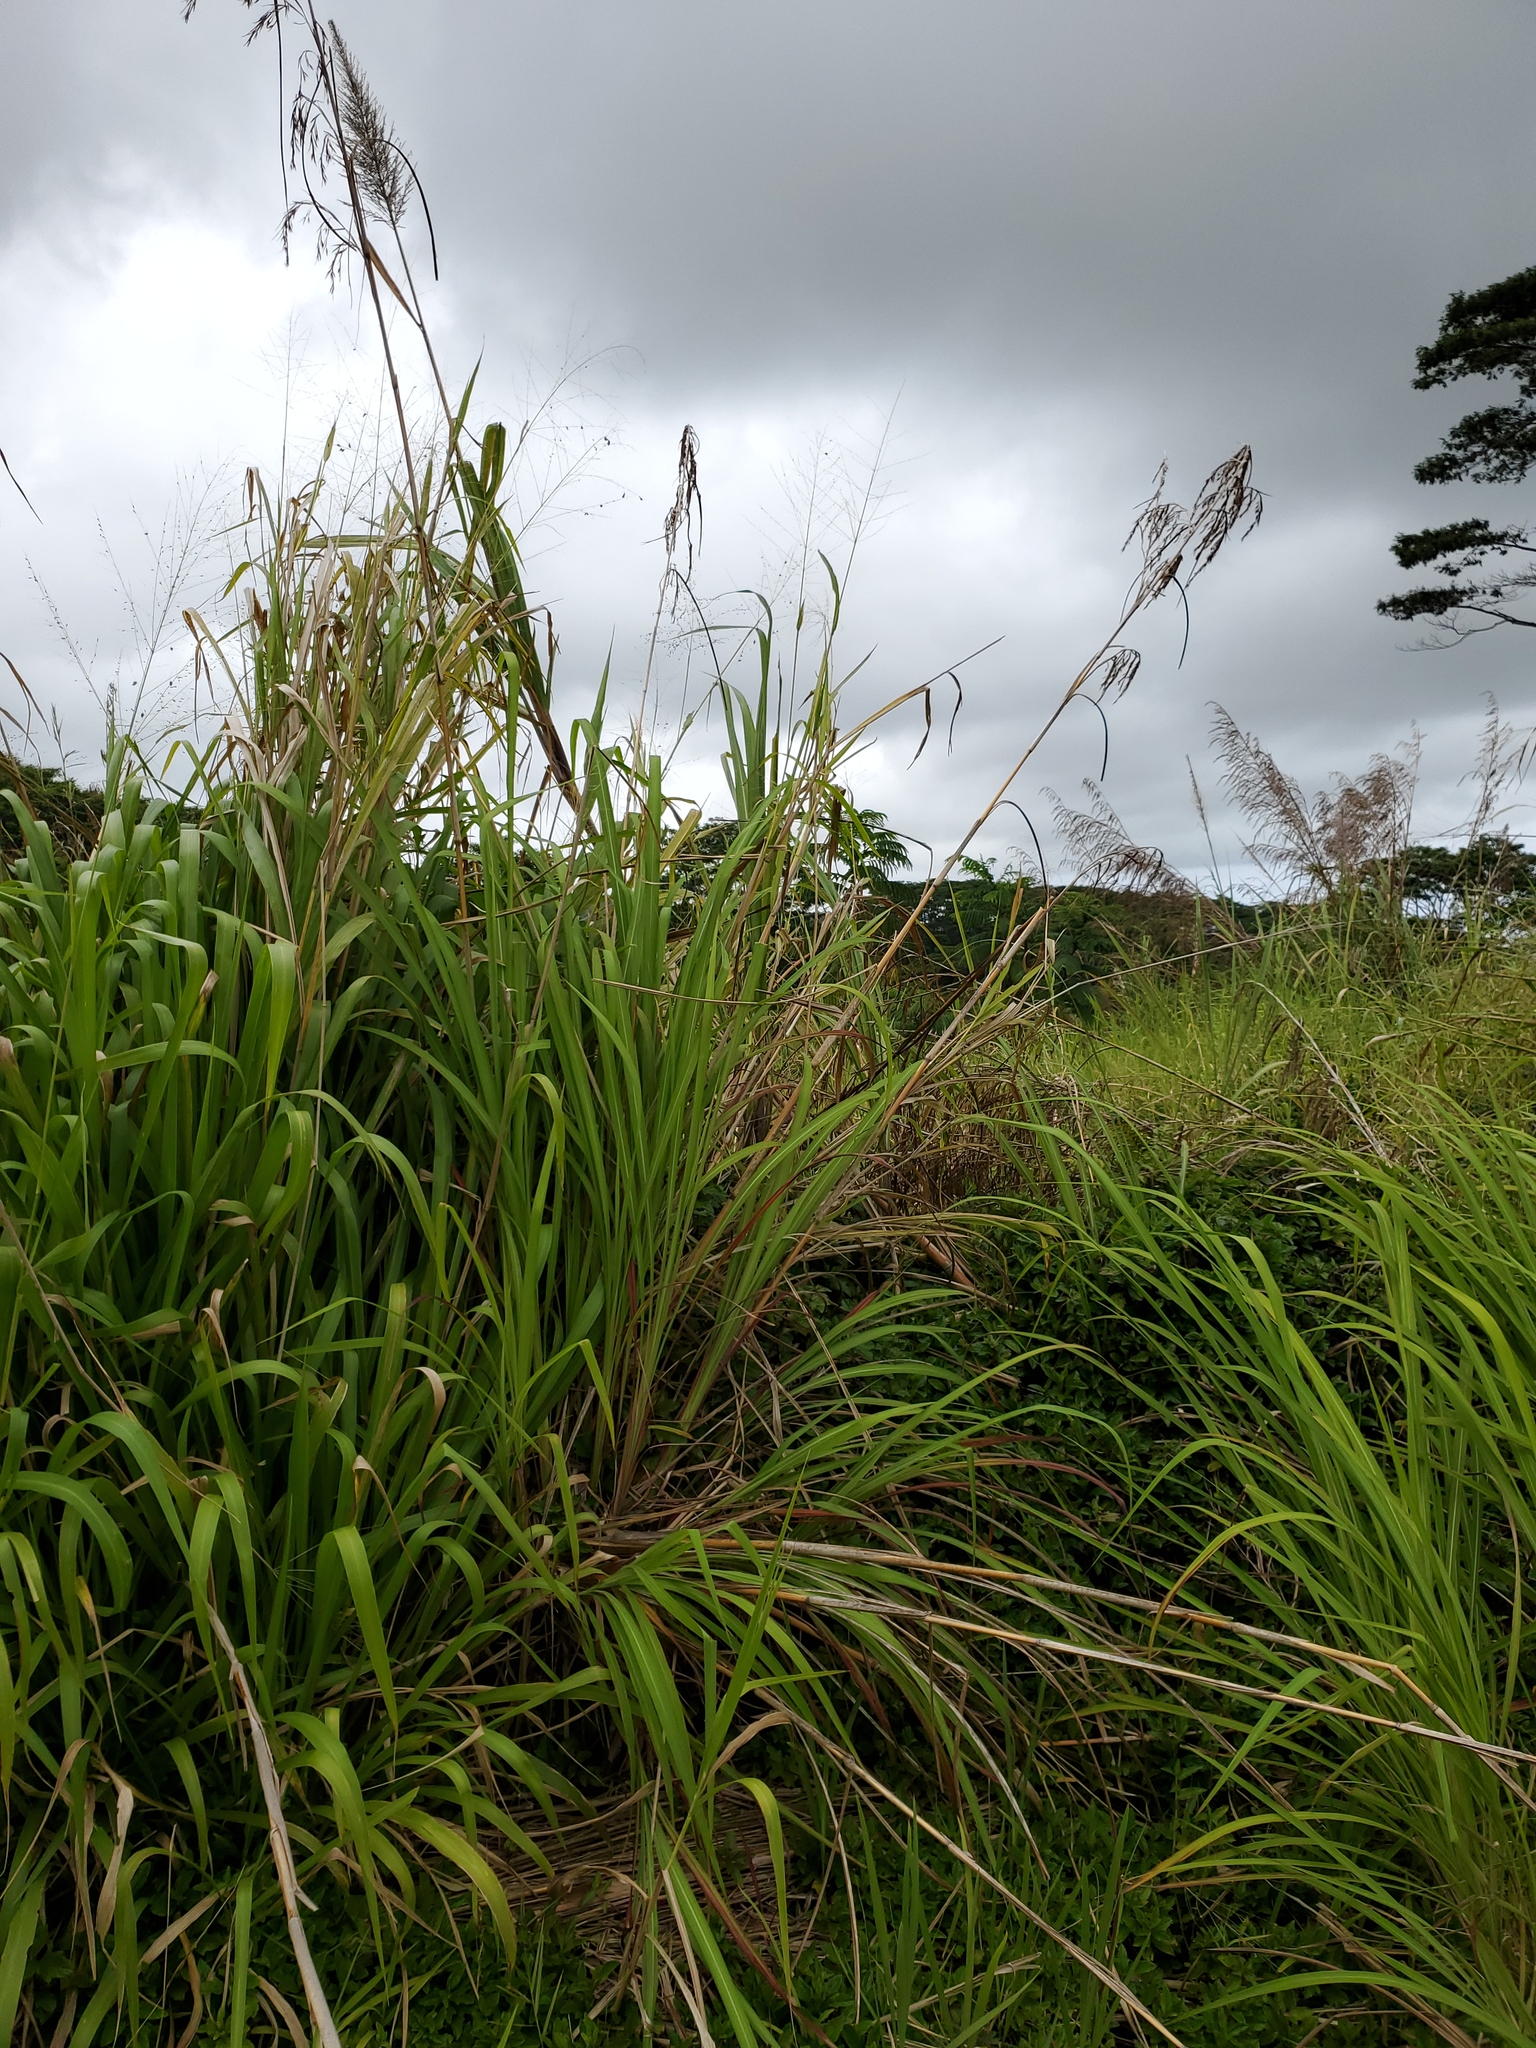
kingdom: Plantae
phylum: Tracheophyta
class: Liliopsida
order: Poales
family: Poaceae
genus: Megathyrsus
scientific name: Megathyrsus maximus
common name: Guineagrass
